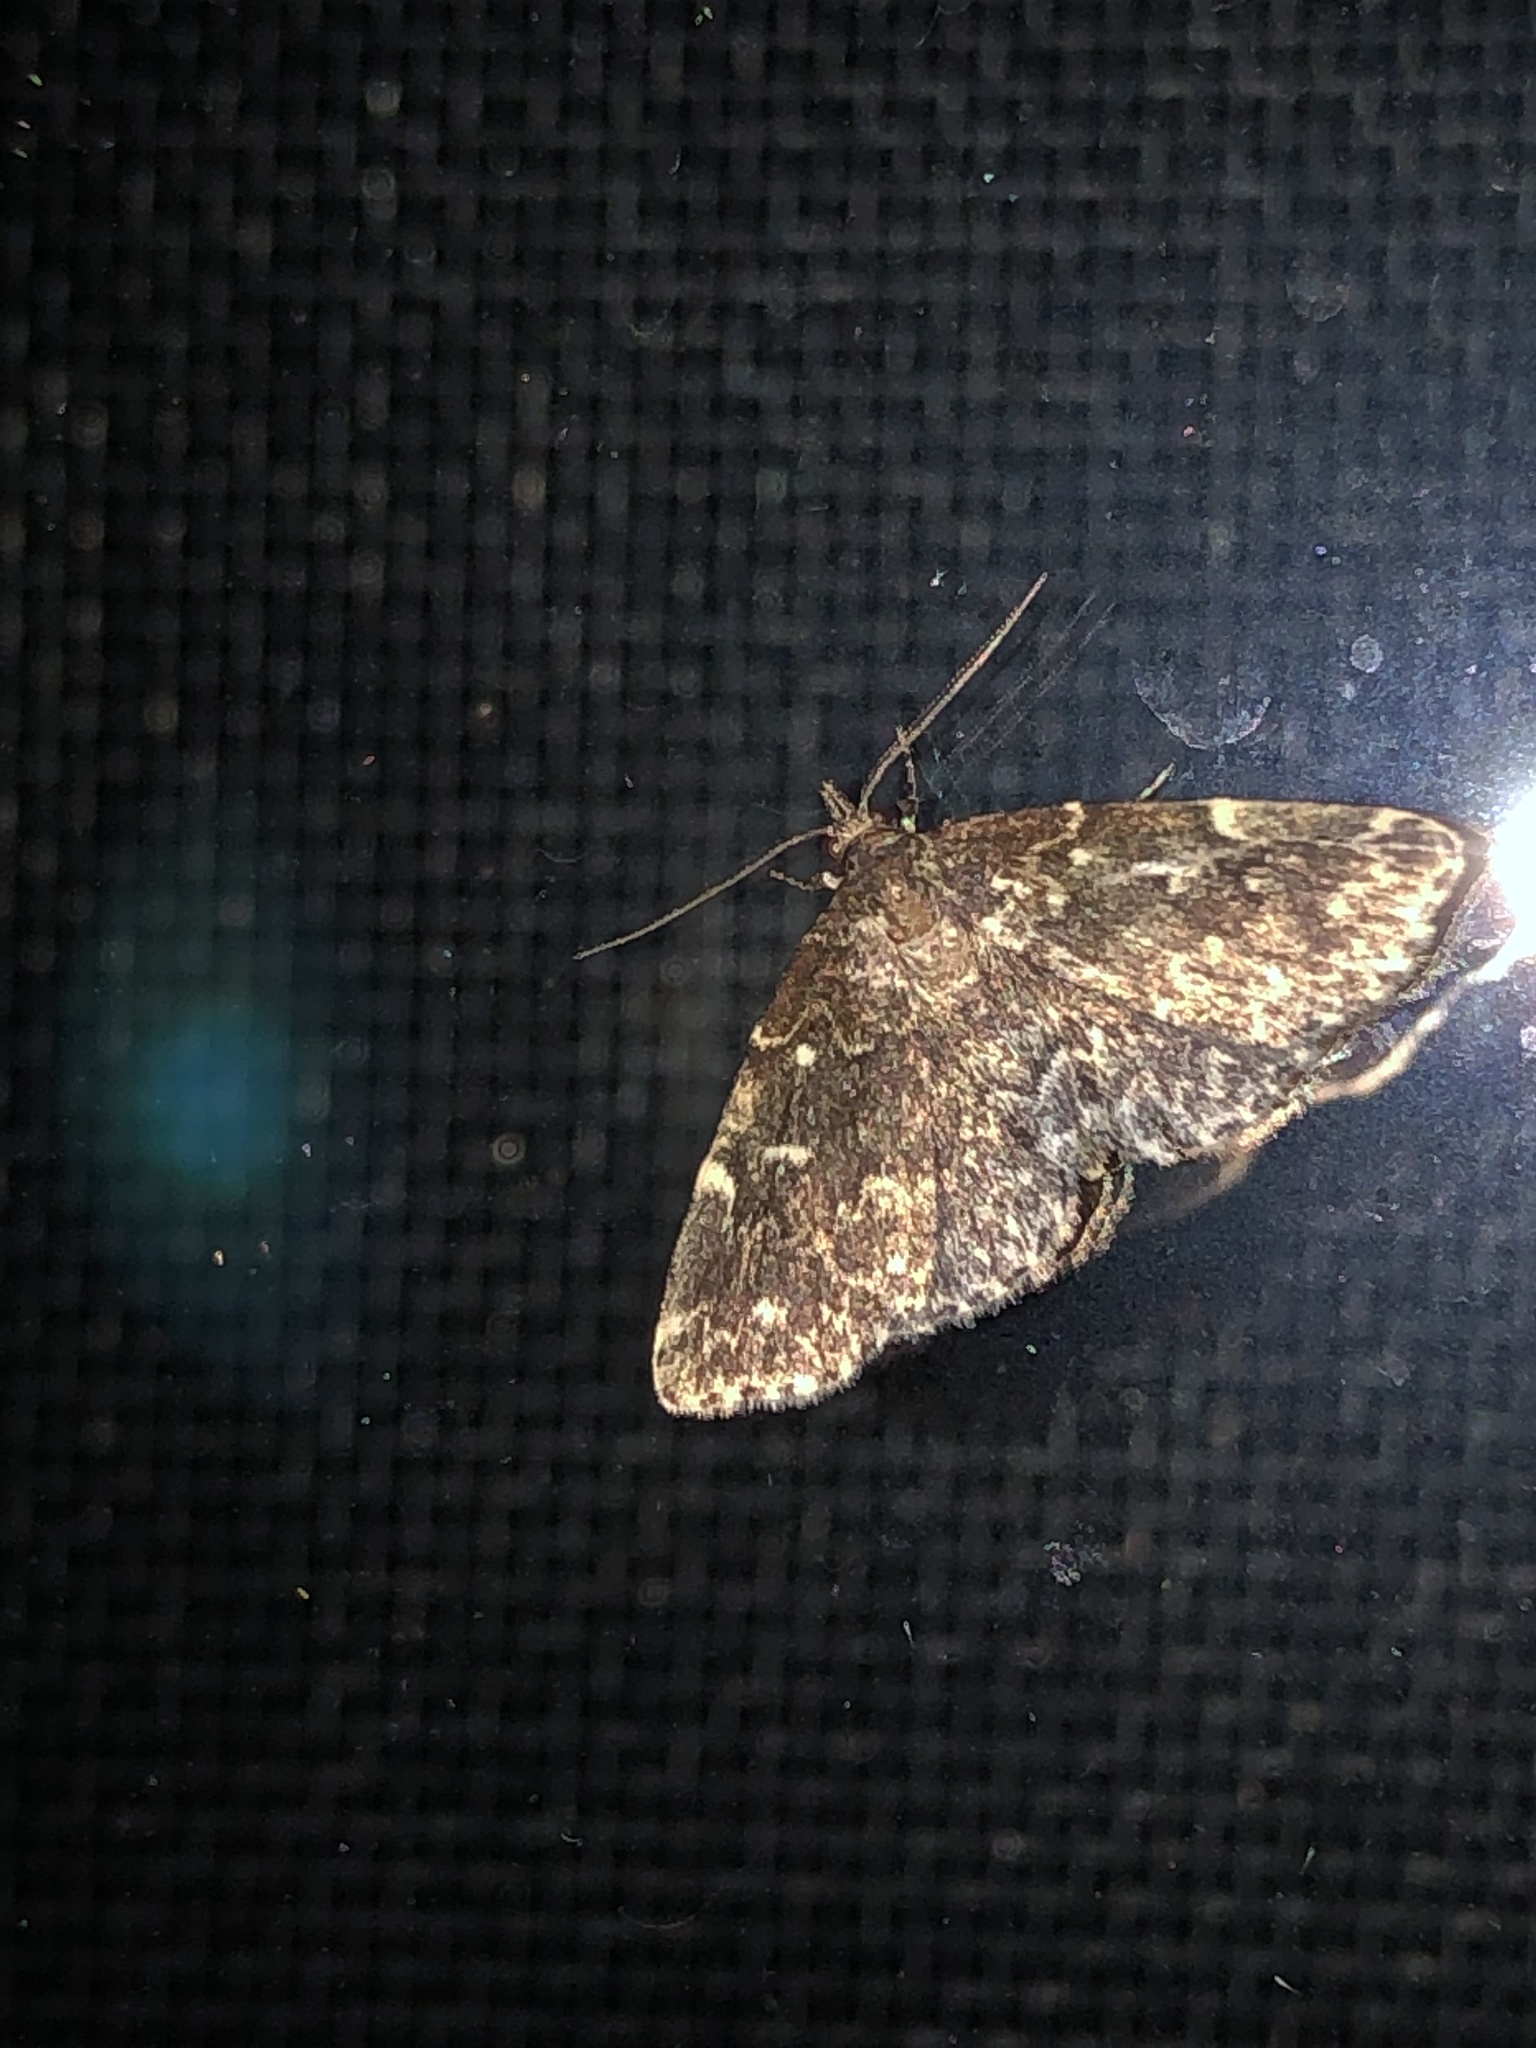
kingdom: Animalia
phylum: Arthropoda
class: Insecta
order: Lepidoptera
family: Erebidae
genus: Idia
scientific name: Idia scobialis
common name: Smoky idia moth
